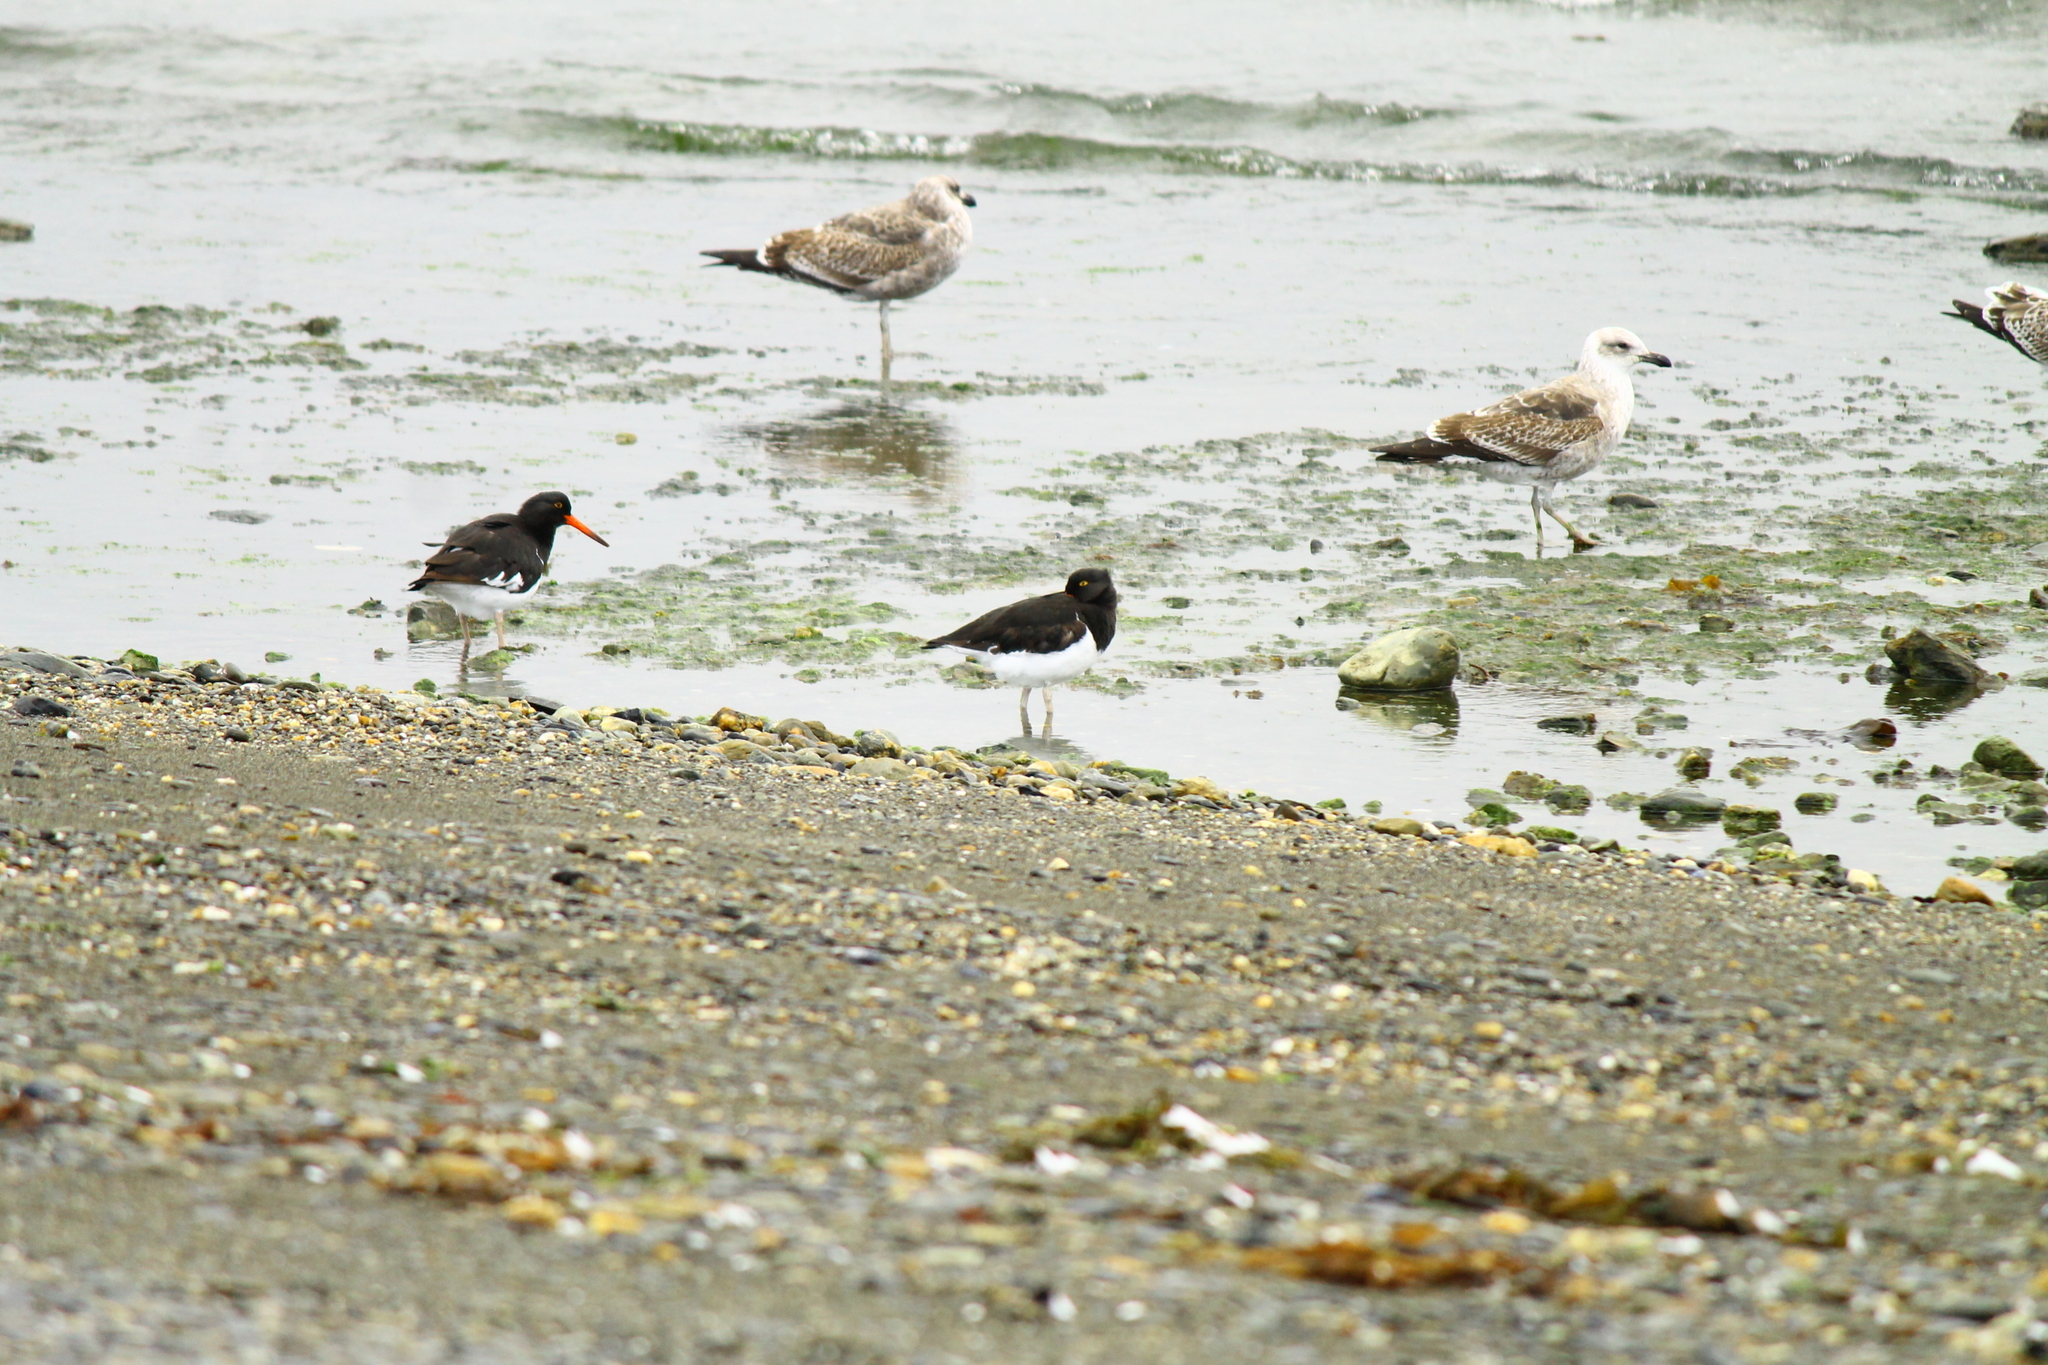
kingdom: Animalia
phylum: Chordata
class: Aves
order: Charadriiformes
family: Haematopodidae
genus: Haematopus
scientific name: Haematopus leucopodus
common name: Magellanic oystercatcher
